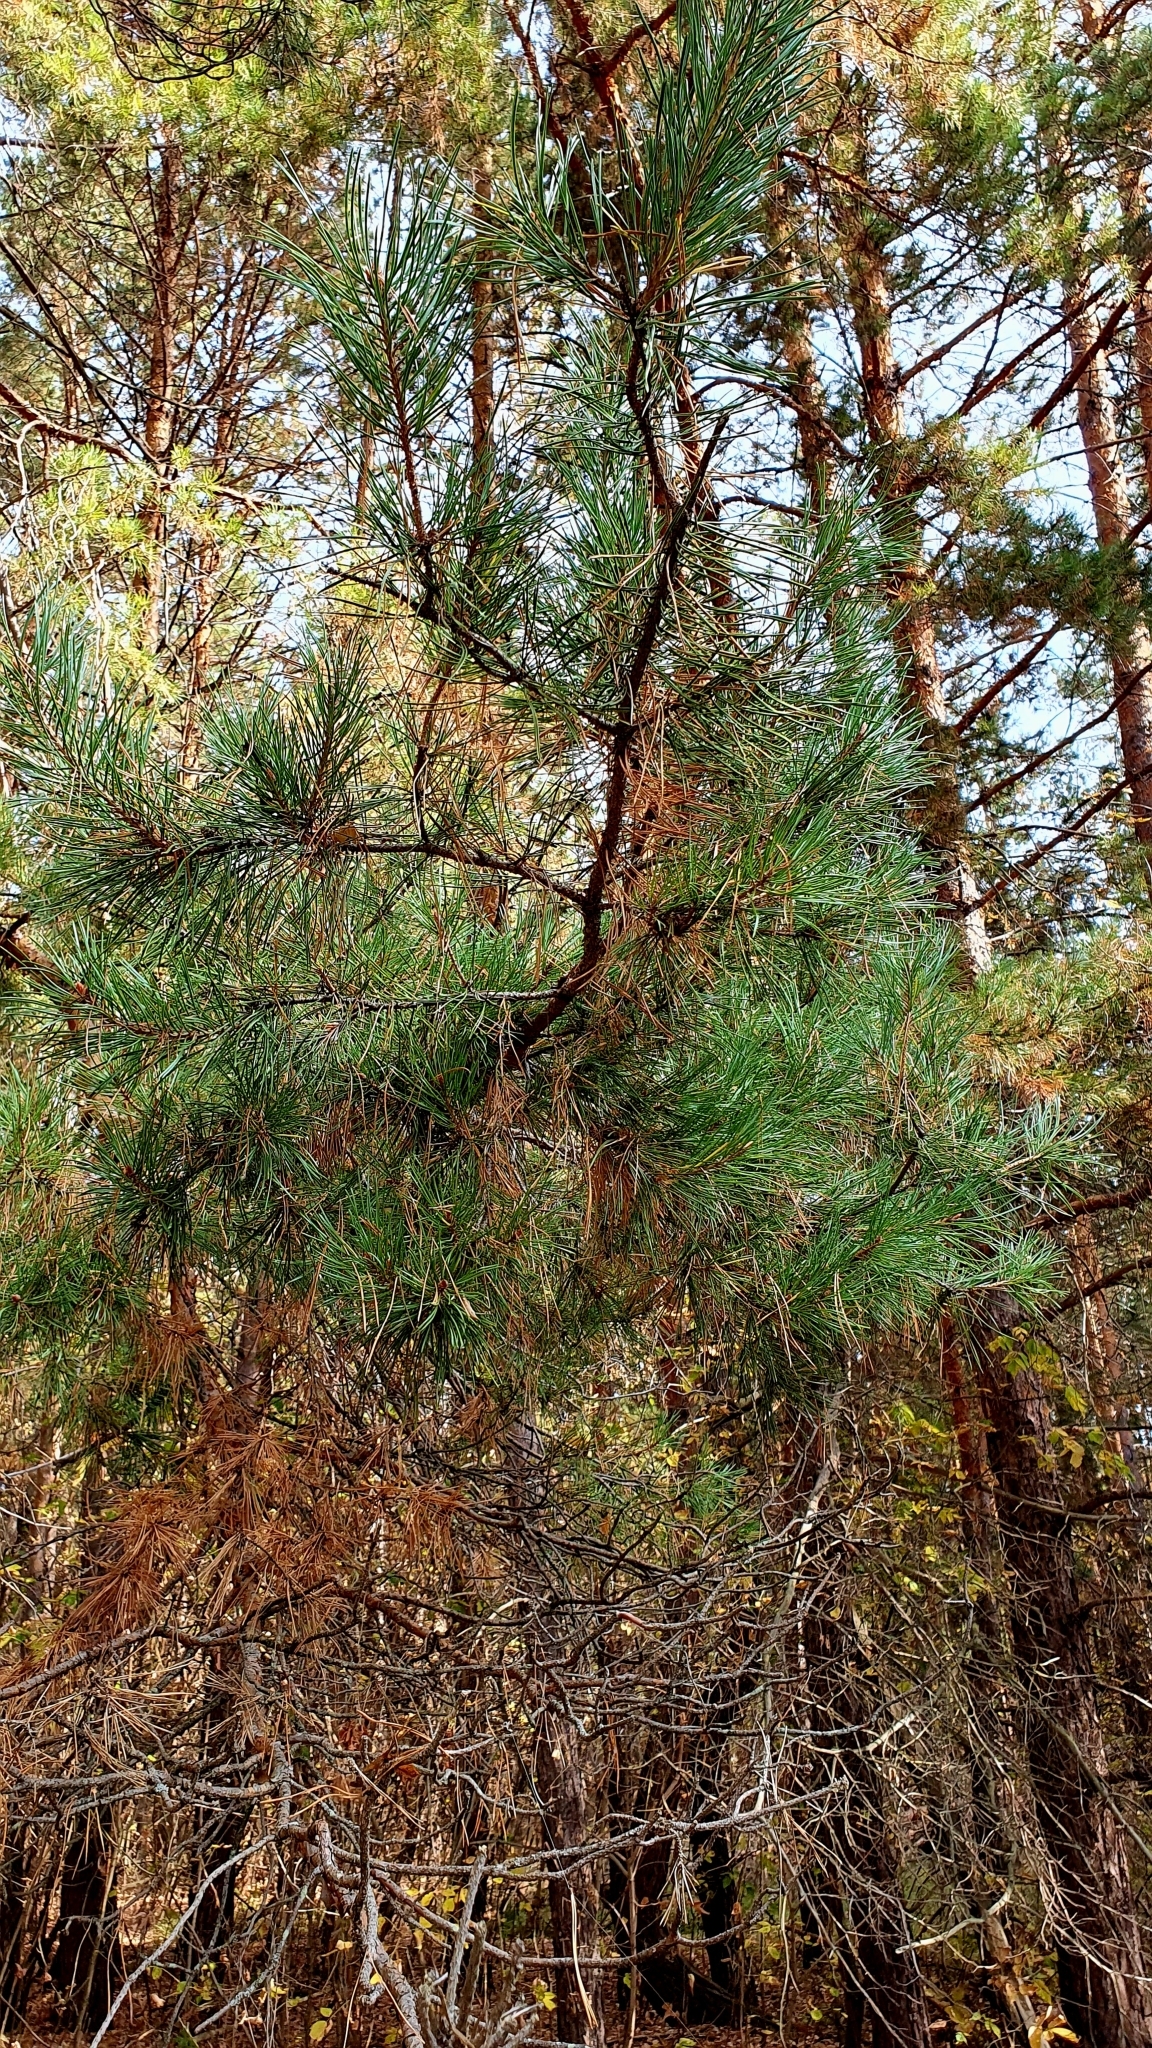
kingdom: Plantae
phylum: Tracheophyta
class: Pinopsida
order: Pinales
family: Pinaceae
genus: Pinus
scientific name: Pinus sylvestris
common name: Scots pine
